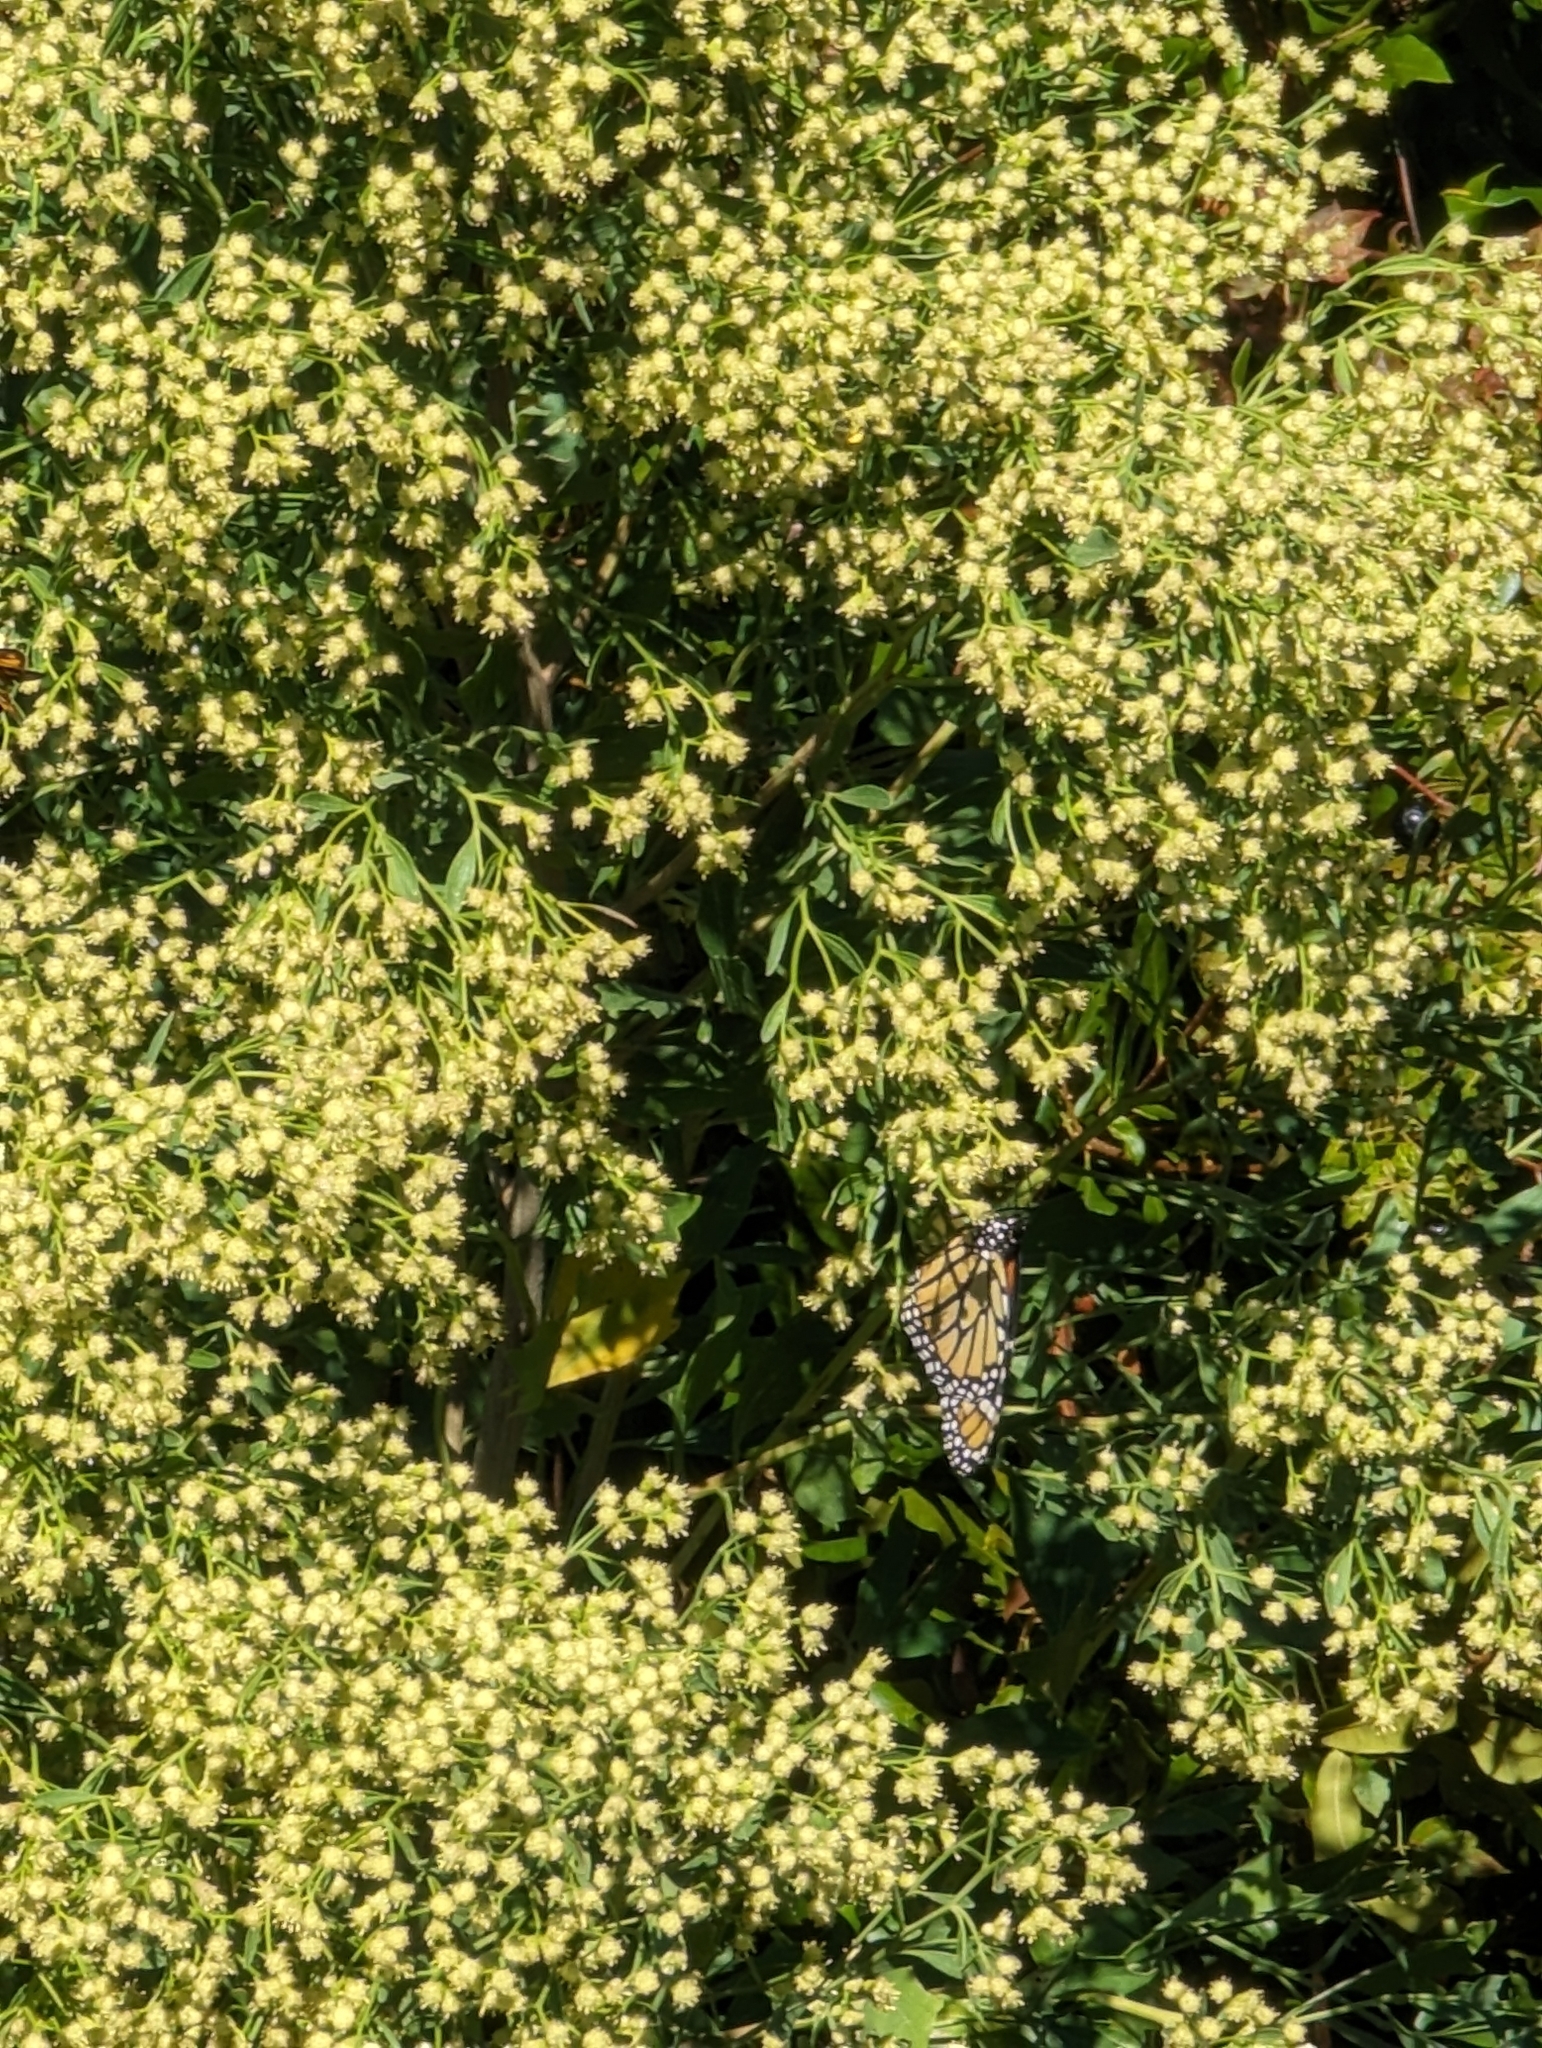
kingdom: Plantae
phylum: Tracheophyta
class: Magnoliopsida
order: Asterales
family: Asteraceae
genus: Baccharis
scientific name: Baccharis halimifolia
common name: Eastern baccharis
